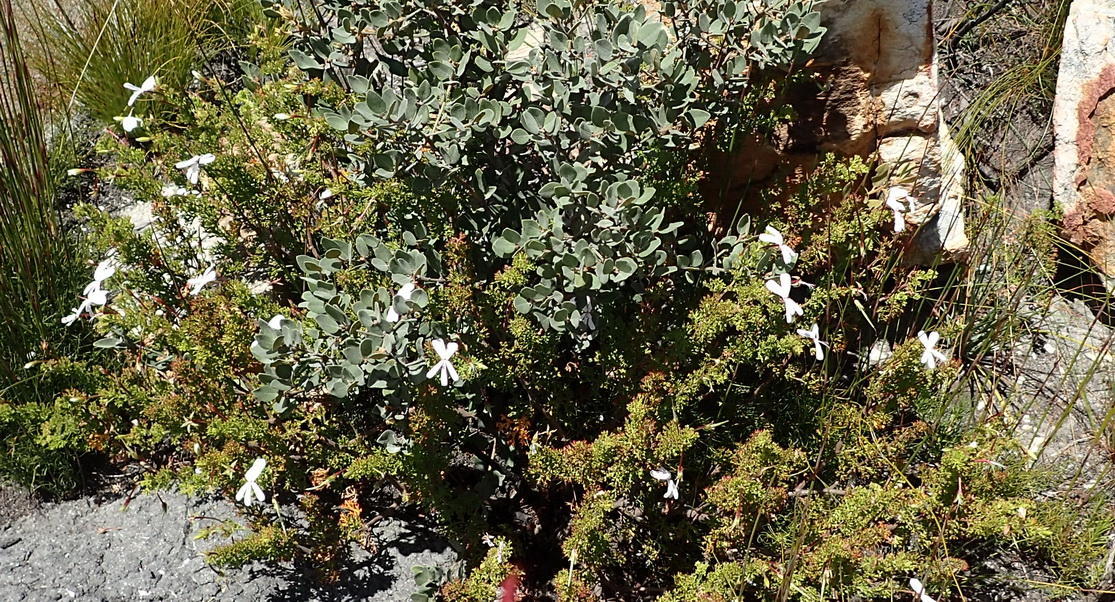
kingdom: Plantae
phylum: Tracheophyta
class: Magnoliopsida
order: Geraniales
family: Geraniaceae
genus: Pelargonium
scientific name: Pelargonium fruticosum
